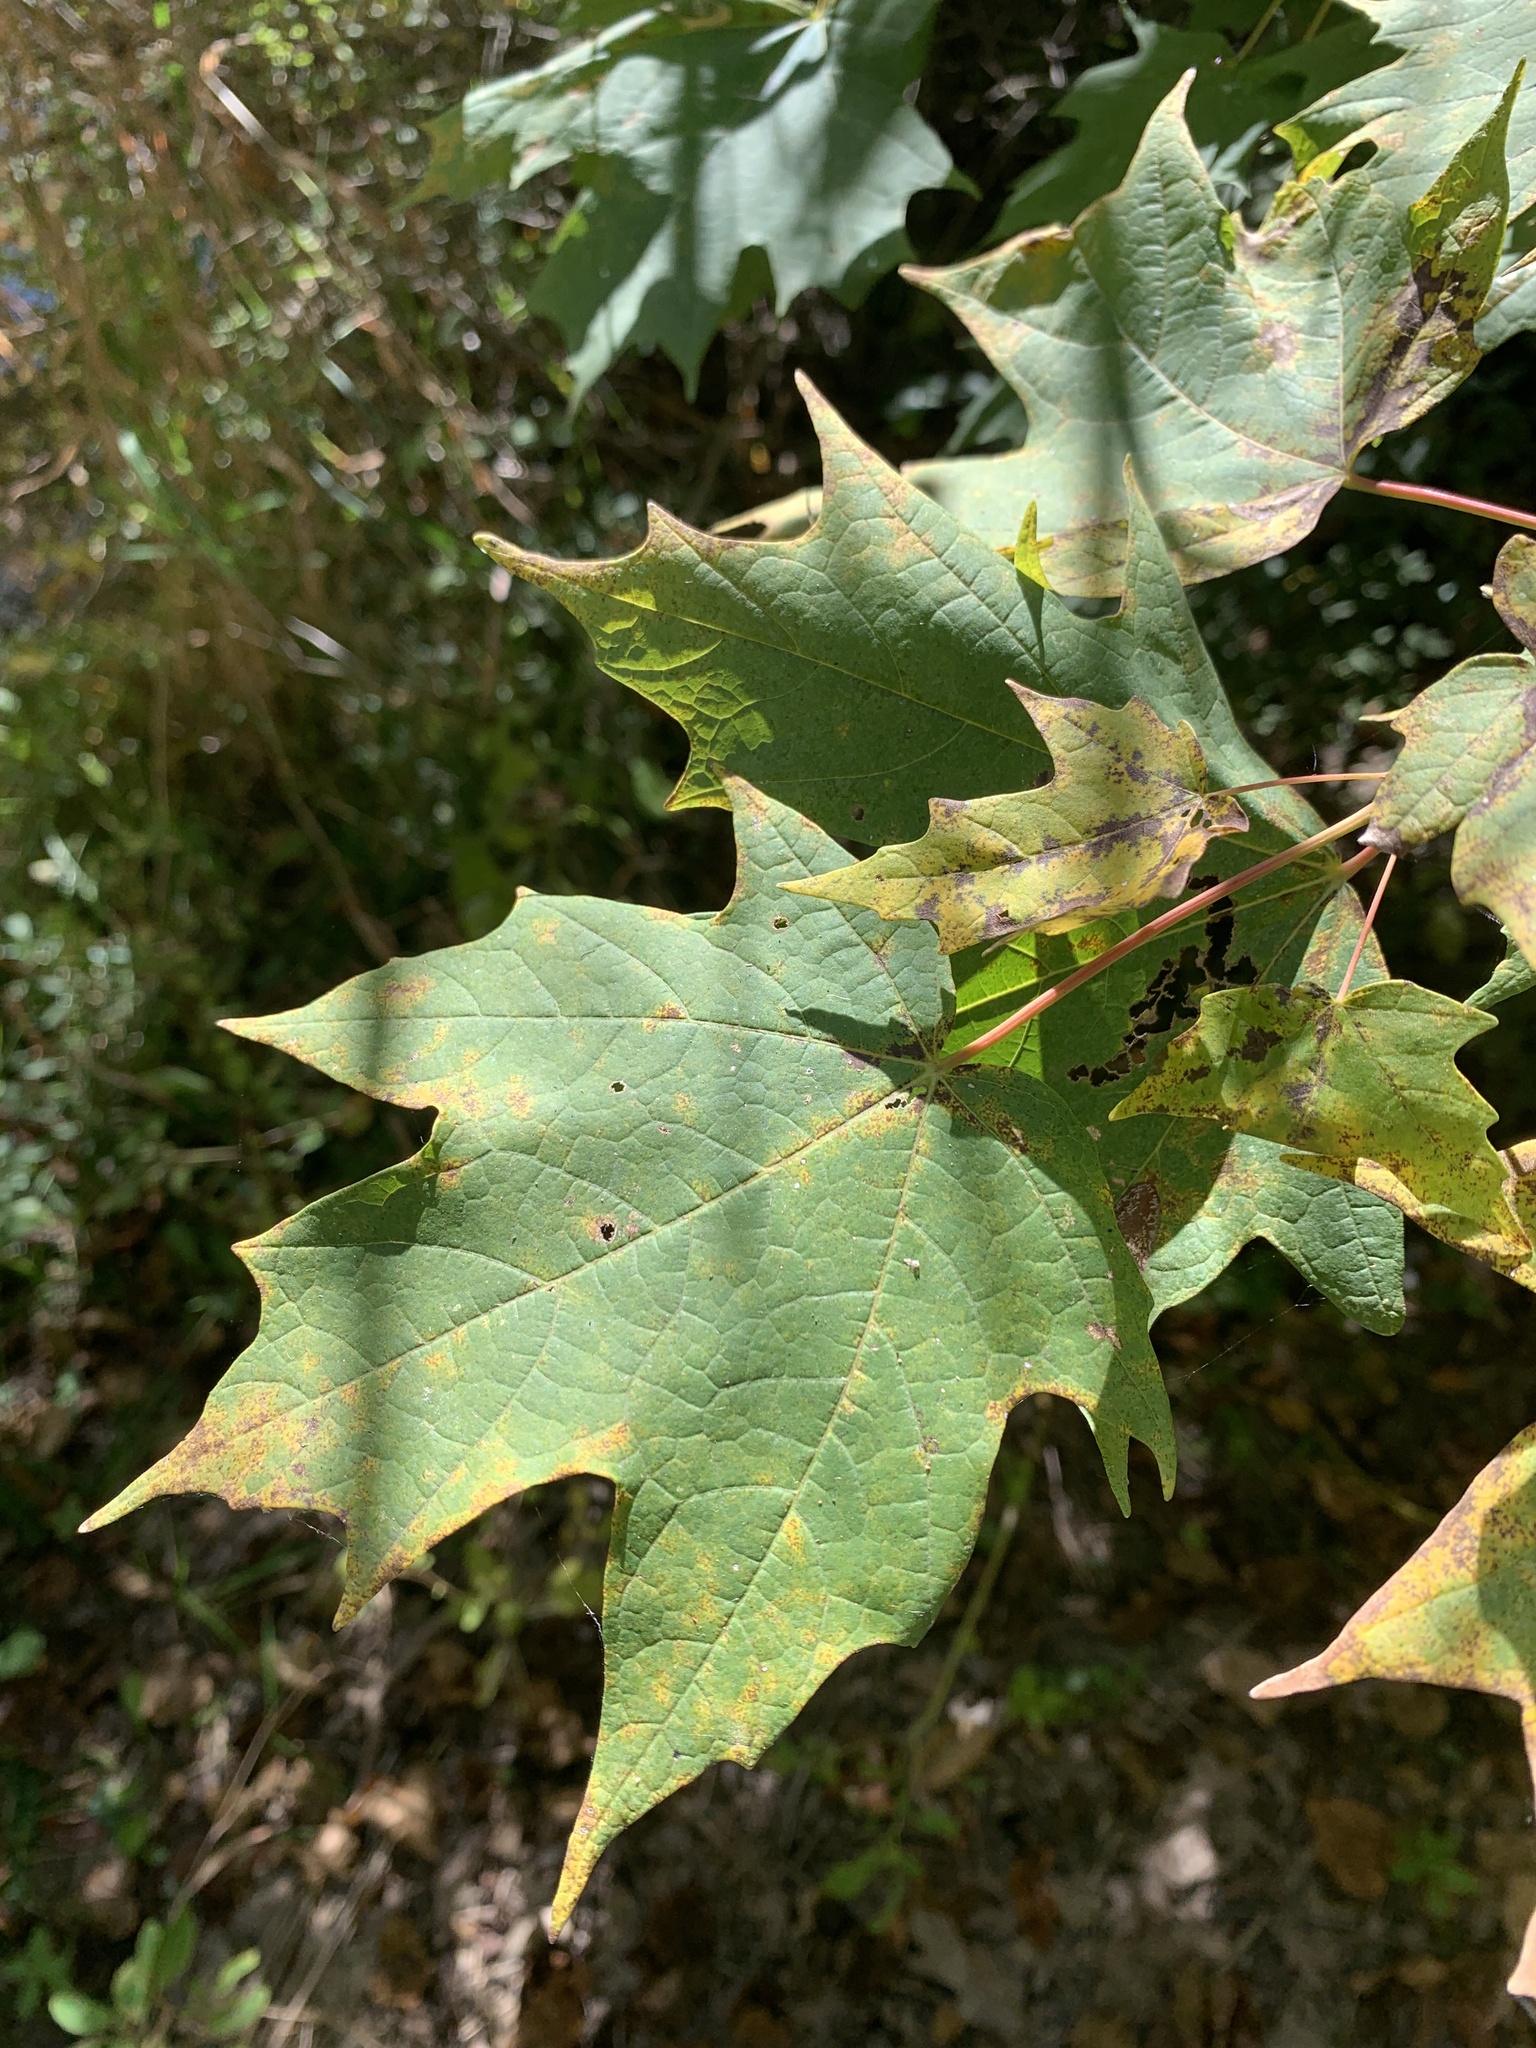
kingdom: Plantae
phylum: Tracheophyta
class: Magnoliopsida
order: Sapindales
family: Sapindaceae
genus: Acer
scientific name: Acer saccharum
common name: Sugar maple
